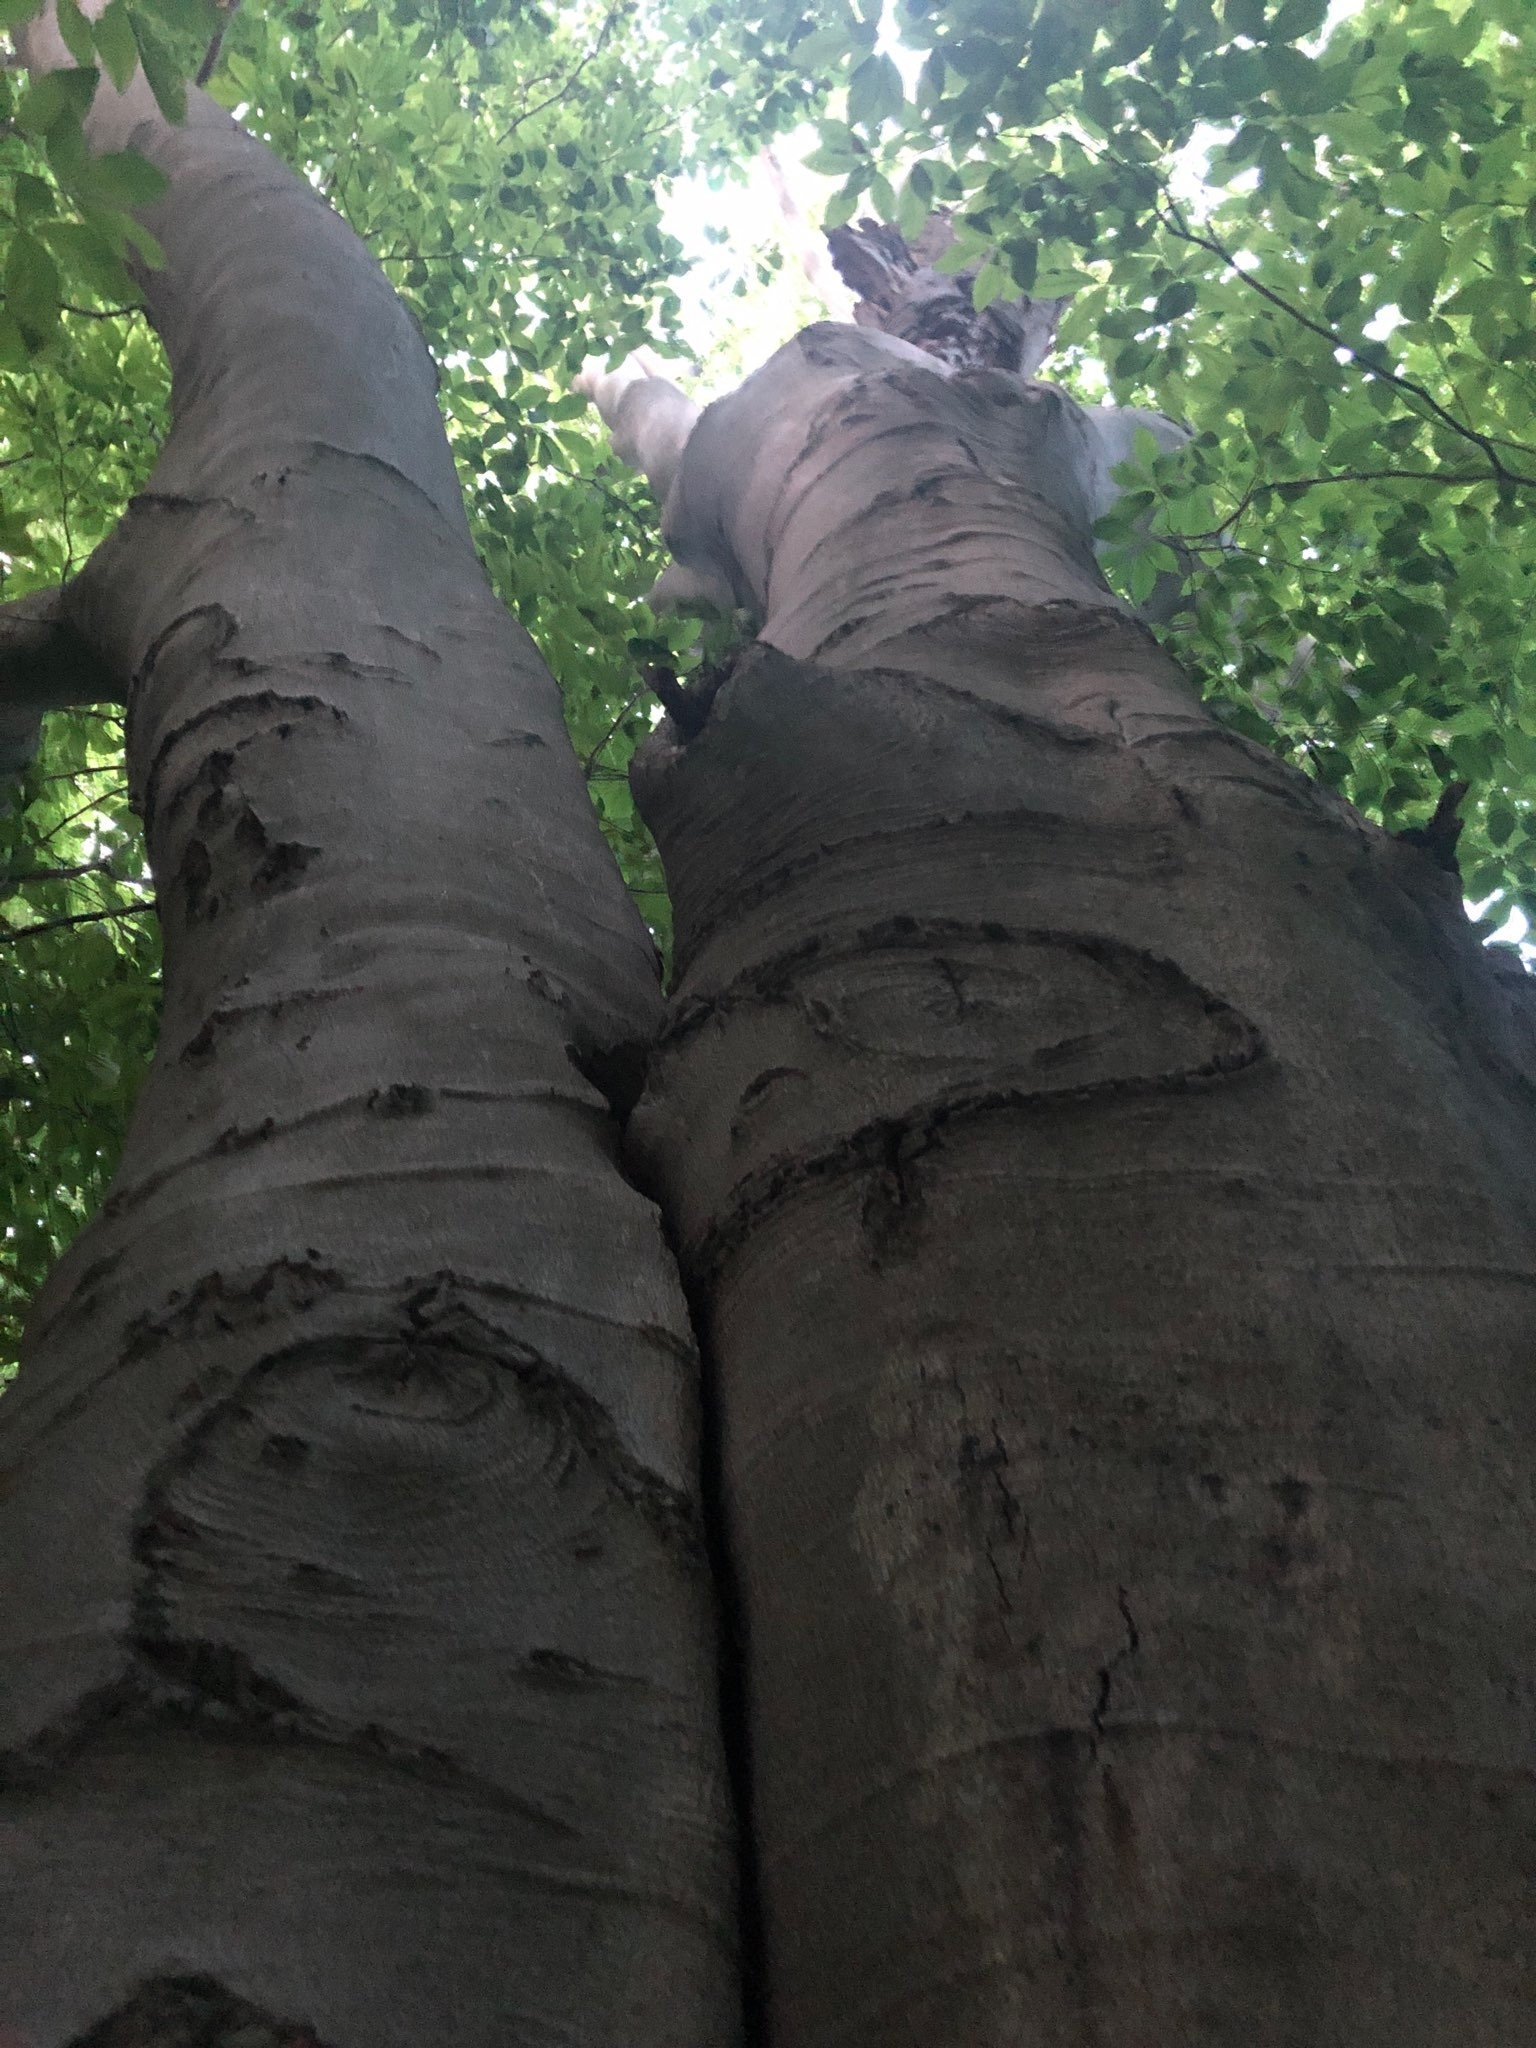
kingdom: Plantae
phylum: Tracheophyta
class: Magnoliopsida
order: Fagales
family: Fagaceae
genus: Fagus
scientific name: Fagus grandifolia
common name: American beech
